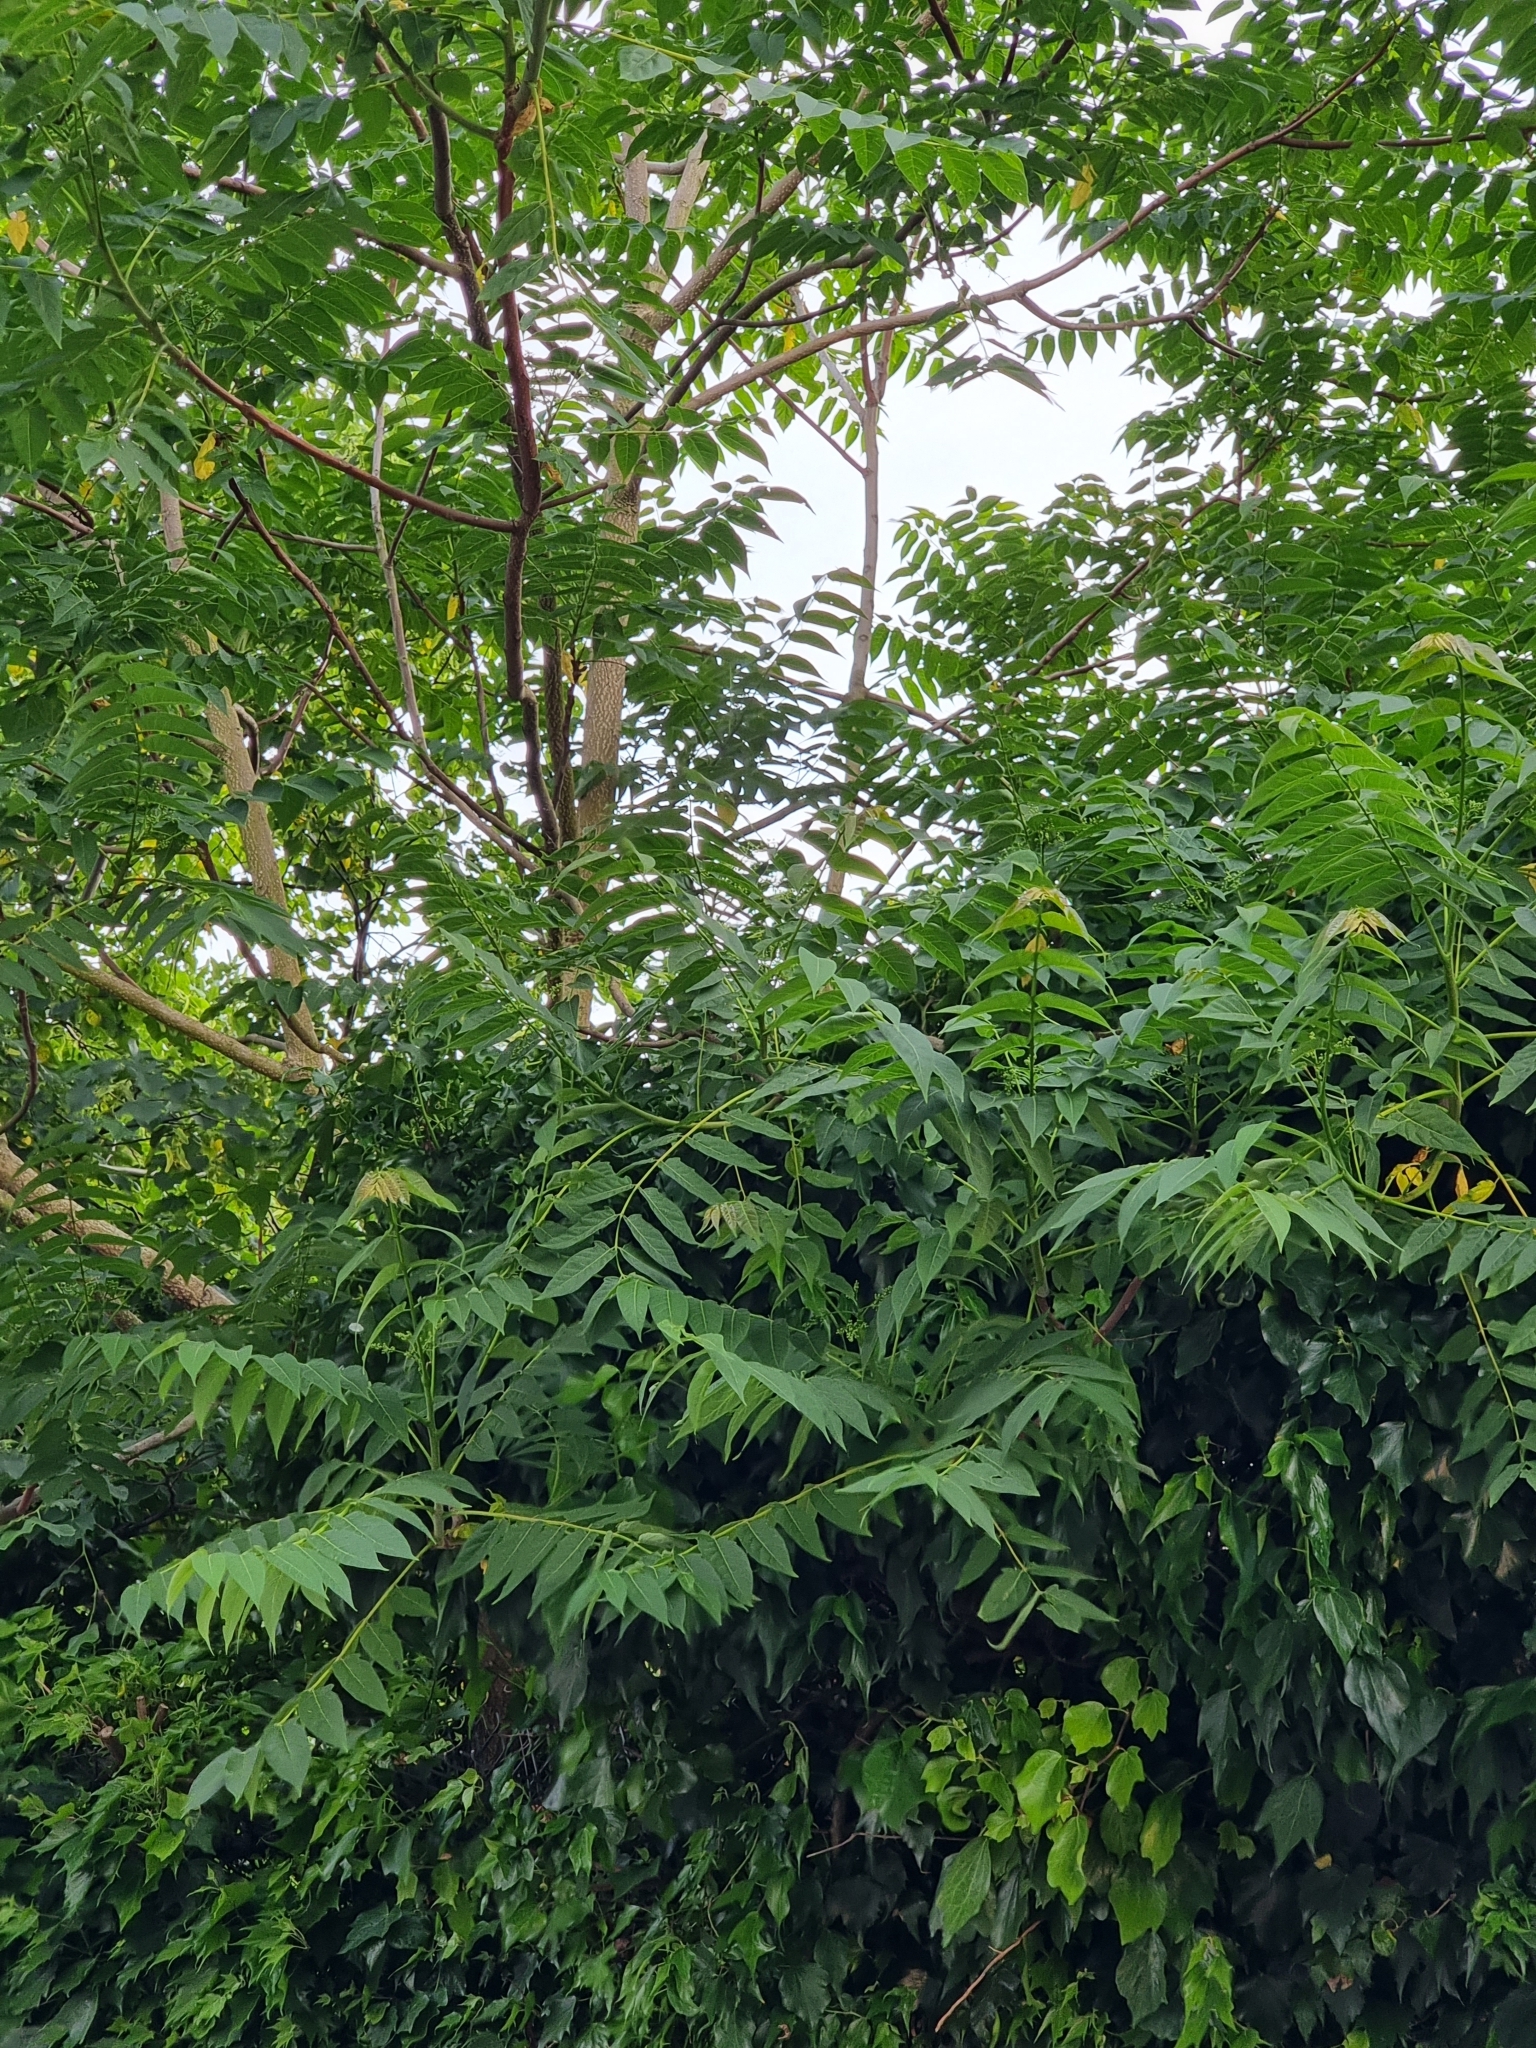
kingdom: Plantae
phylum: Tracheophyta
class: Magnoliopsida
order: Sapindales
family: Simaroubaceae
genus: Ailanthus
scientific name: Ailanthus altissima
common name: Tree-of-heaven
